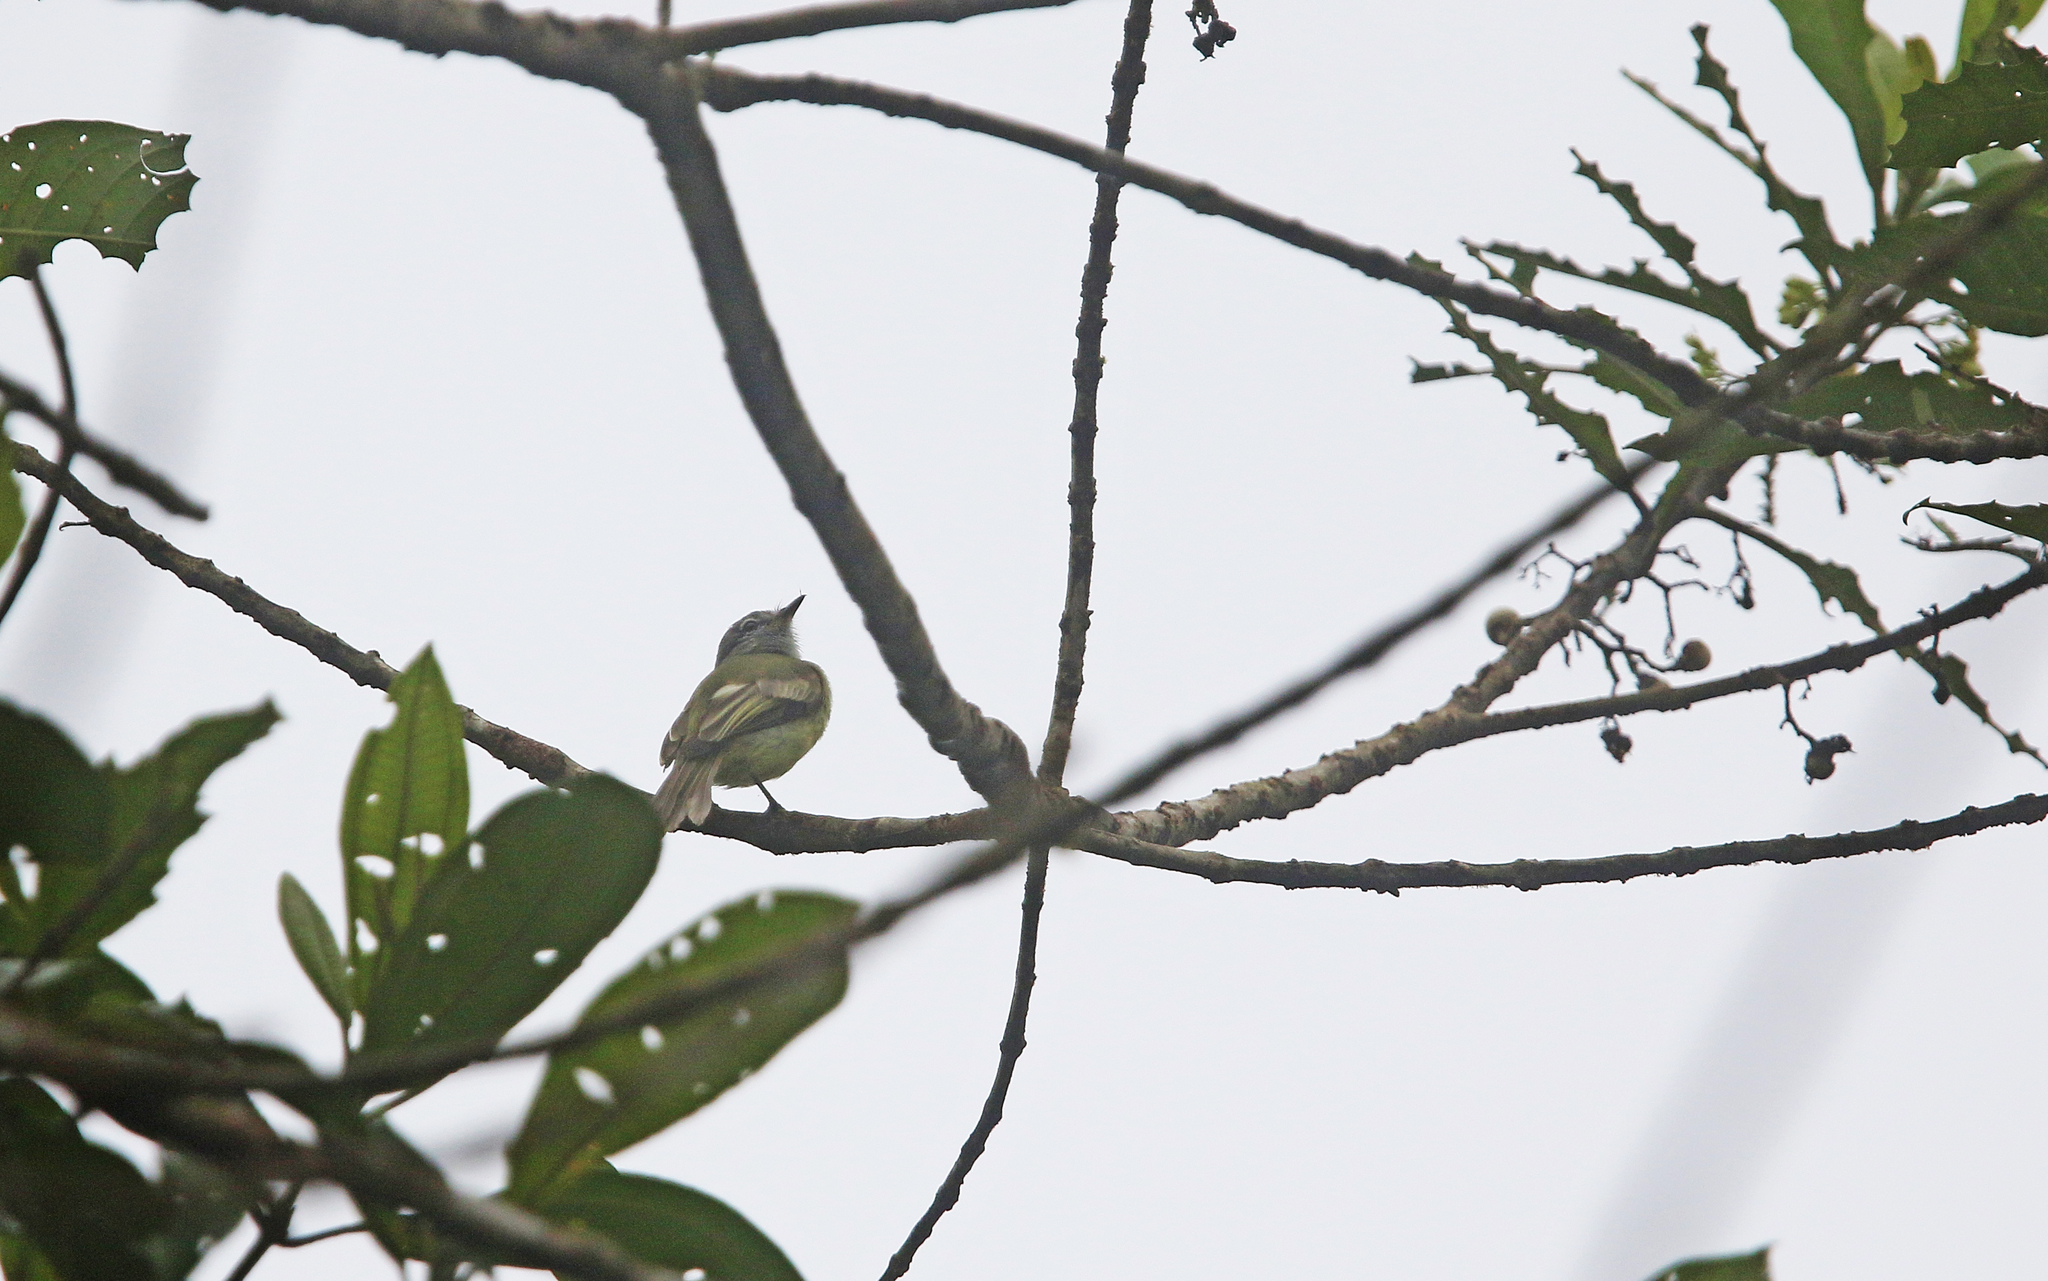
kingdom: Animalia
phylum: Chordata
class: Aves
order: Passeriformes
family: Tyrannidae
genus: Tolmomyias
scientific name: Tolmomyias assimilis
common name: Yellow-margined flycatcher
